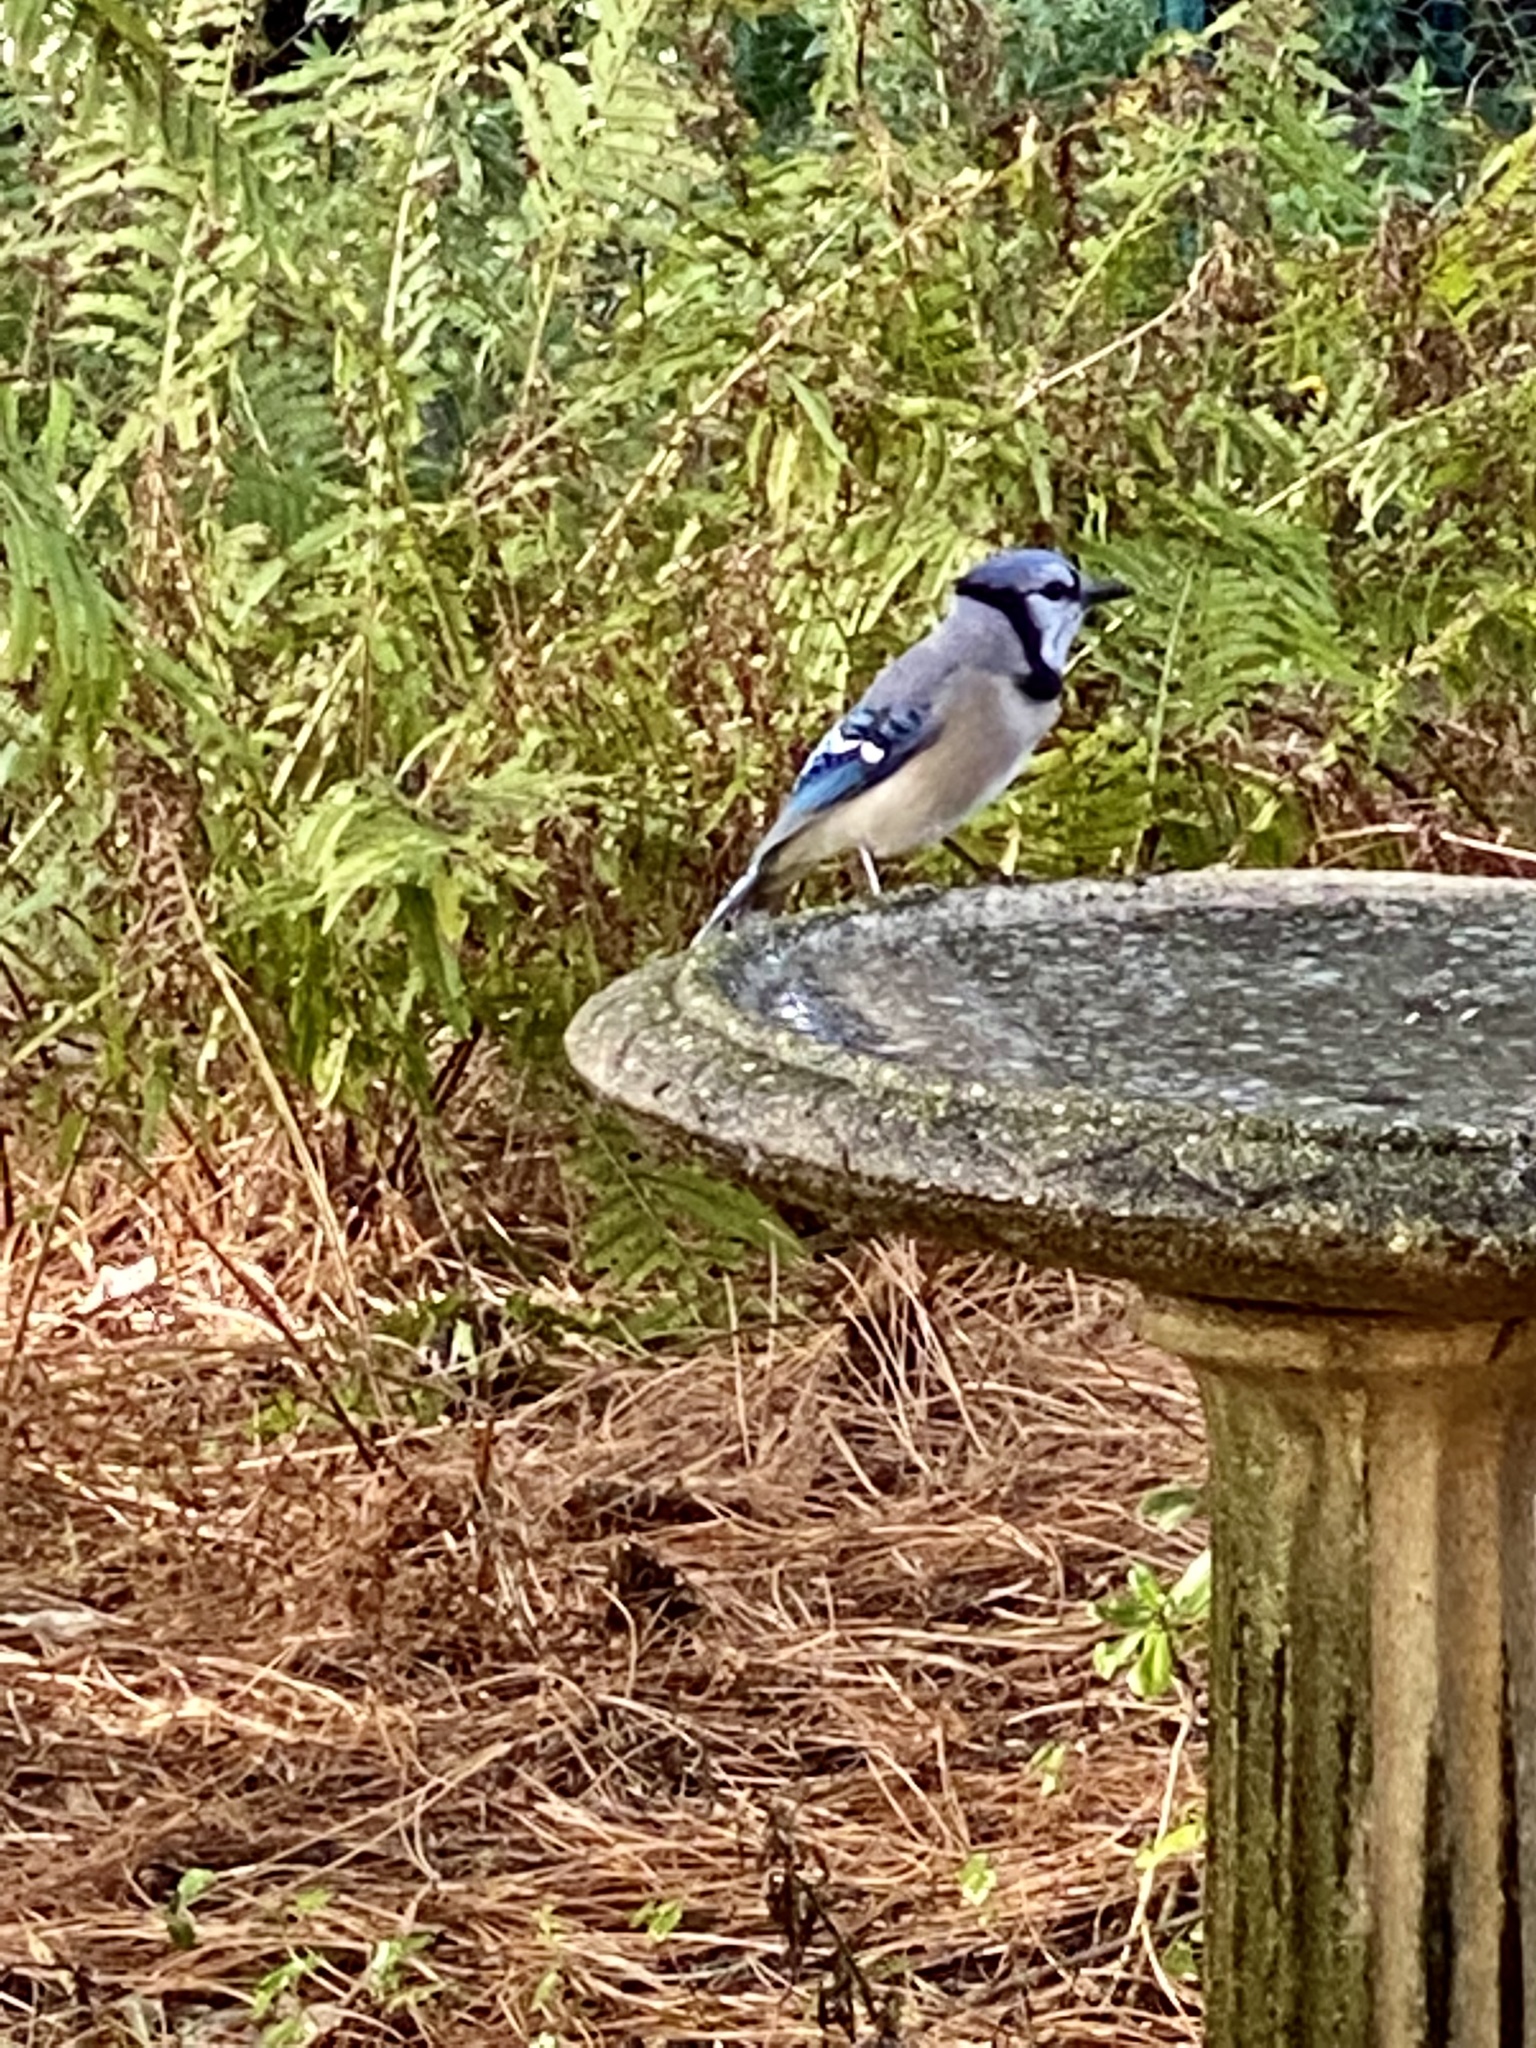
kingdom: Animalia
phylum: Chordata
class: Aves
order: Passeriformes
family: Corvidae
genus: Cyanocitta
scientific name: Cyanocitta cristata
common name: Blue jay
